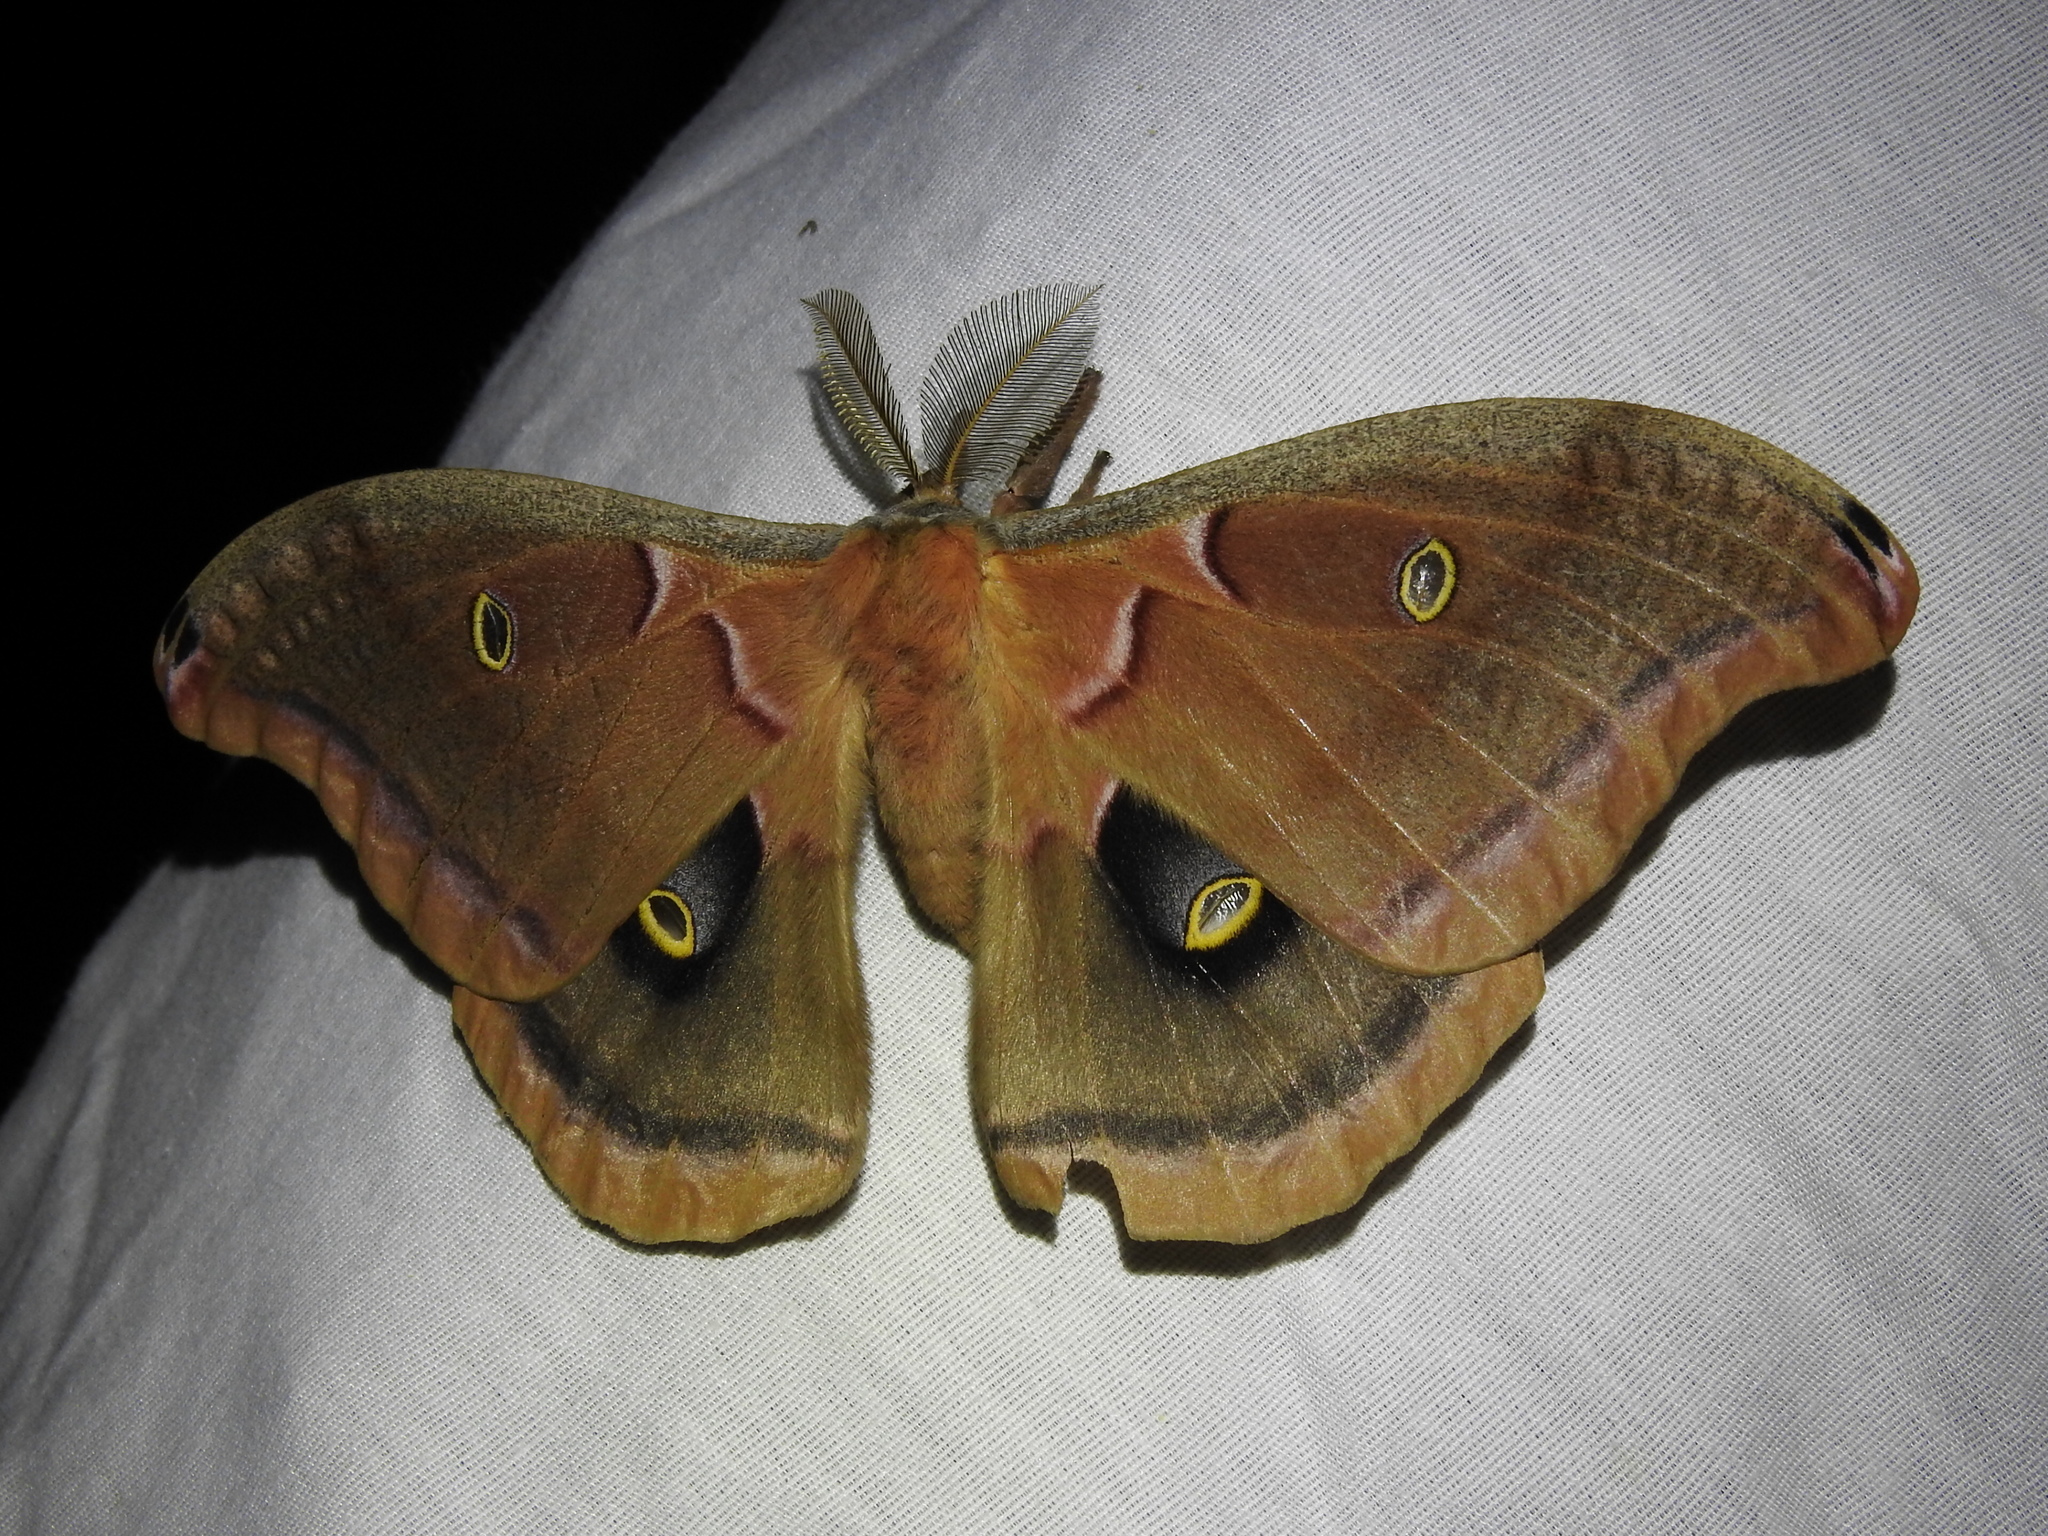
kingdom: Animalia
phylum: Arthropoda
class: Insecta
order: Lepidoptera
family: Saturniidae
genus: Antheraea
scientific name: Antheraea polyphemus
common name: Polyphemus moth
